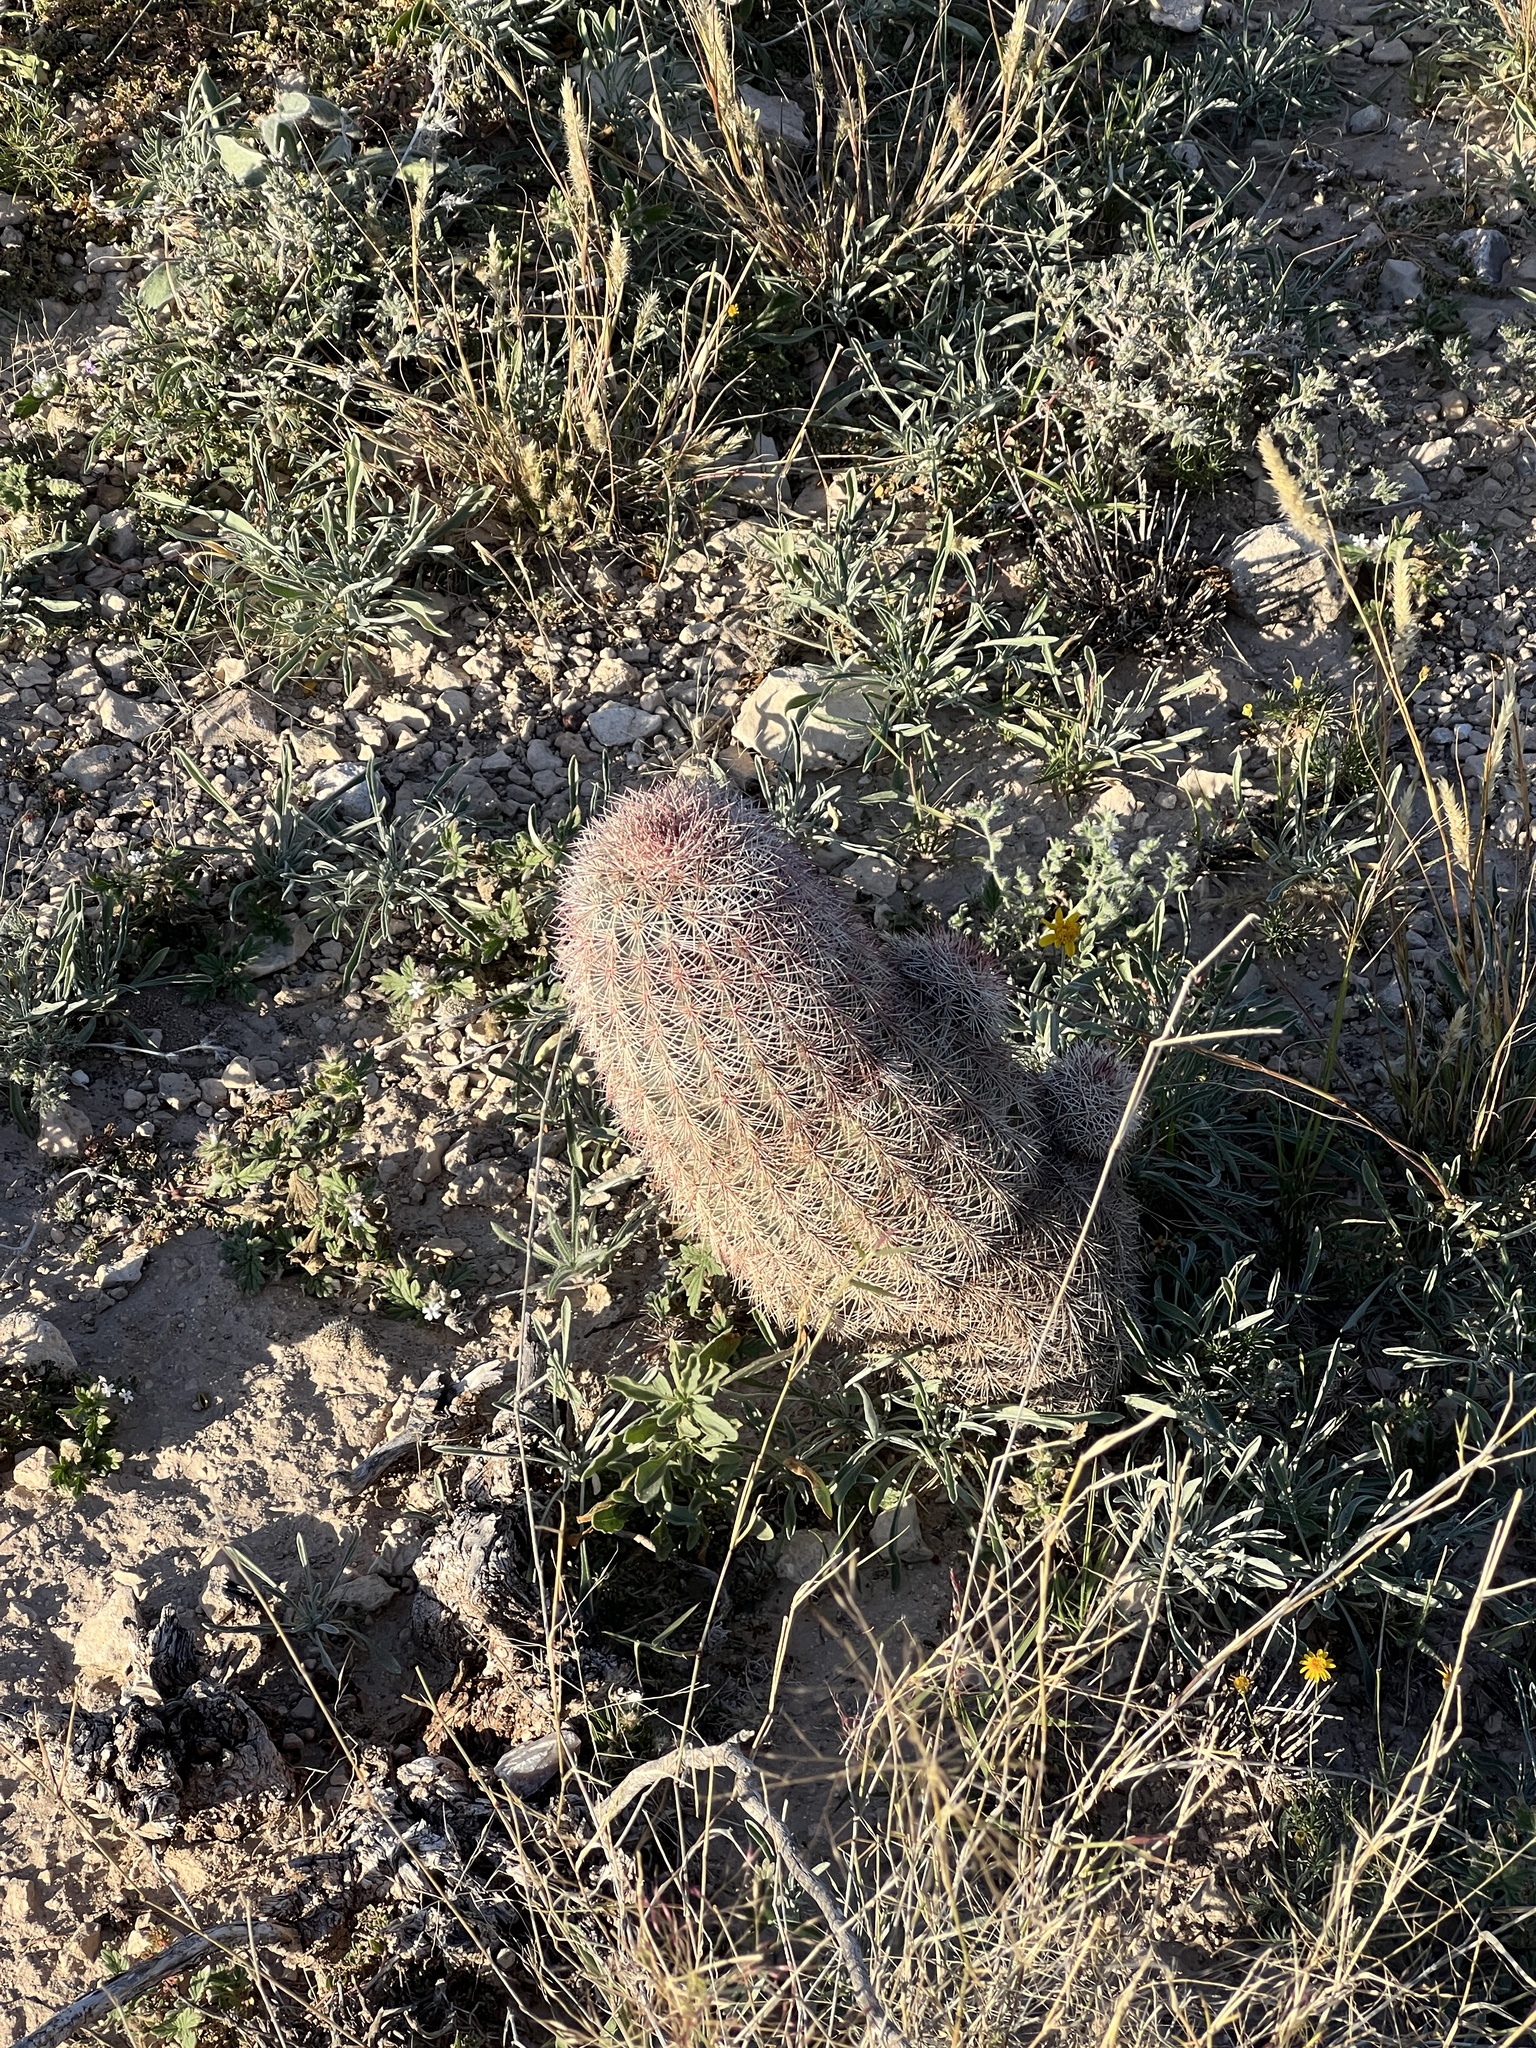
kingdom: Plantae
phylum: Tracheophyta
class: Magnoliopsida
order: Caryophyllales
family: Cactaceae
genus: Echinocereus
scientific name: Echinocereus dasyacanthus
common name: Spiny hedgehog cactus
